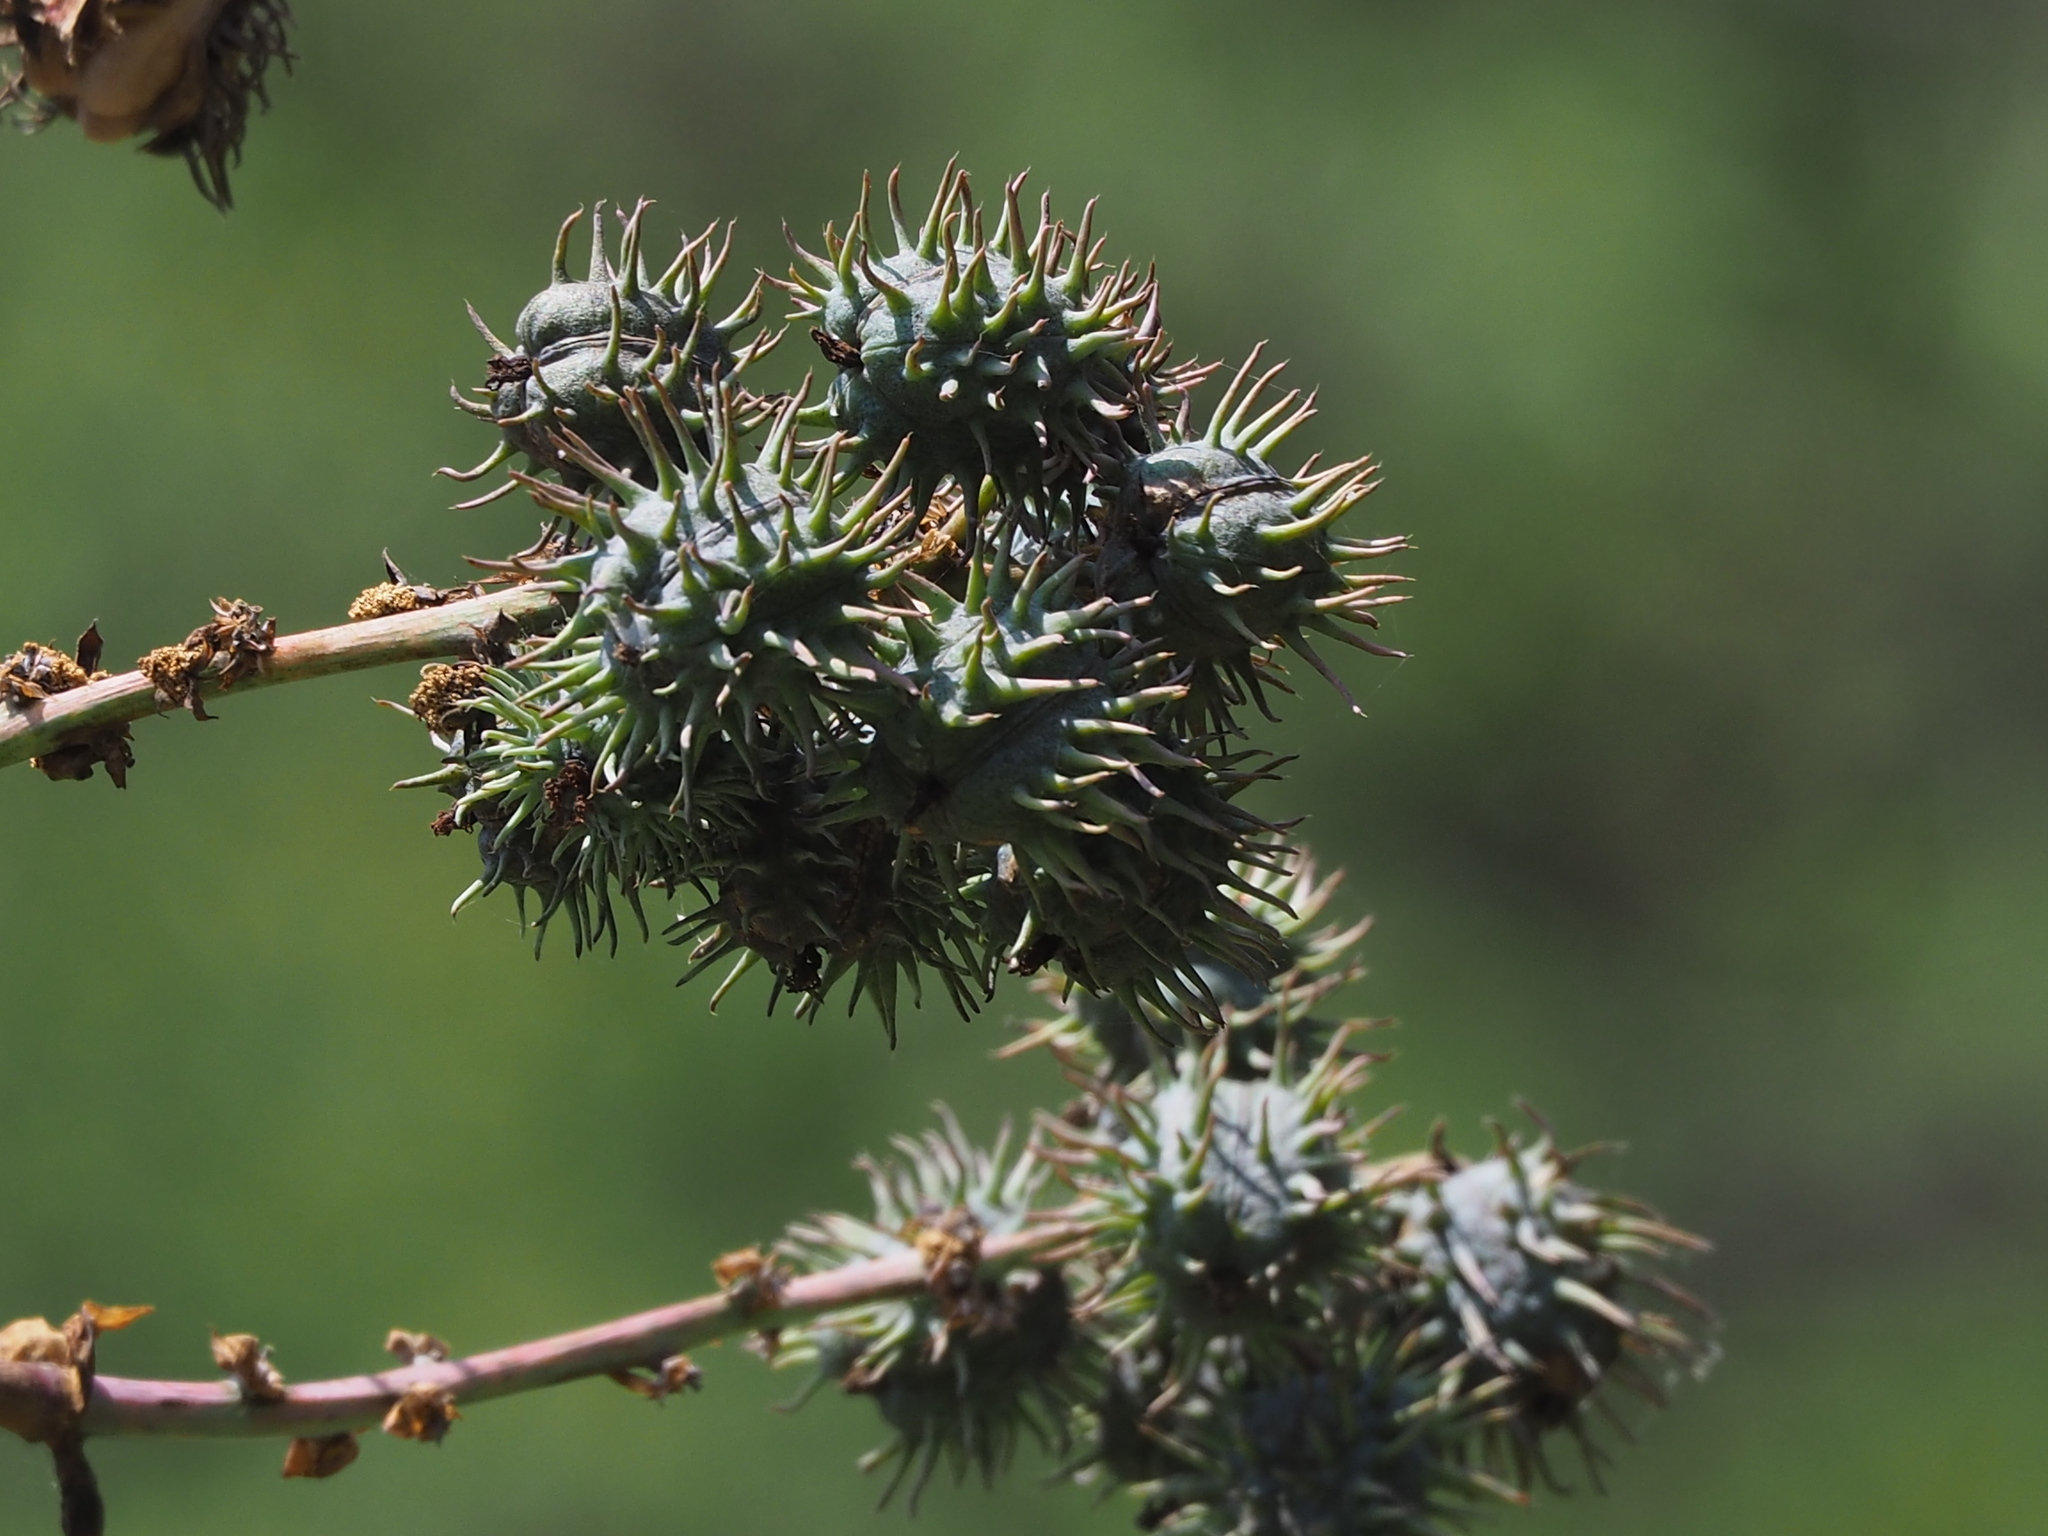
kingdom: Plantae
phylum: Tracheophyta
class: Magnoliopsida
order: Malpighiales
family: Euphorbiaceae
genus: Ricinus
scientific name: Ricinus communis
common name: Castor-oil-plant
